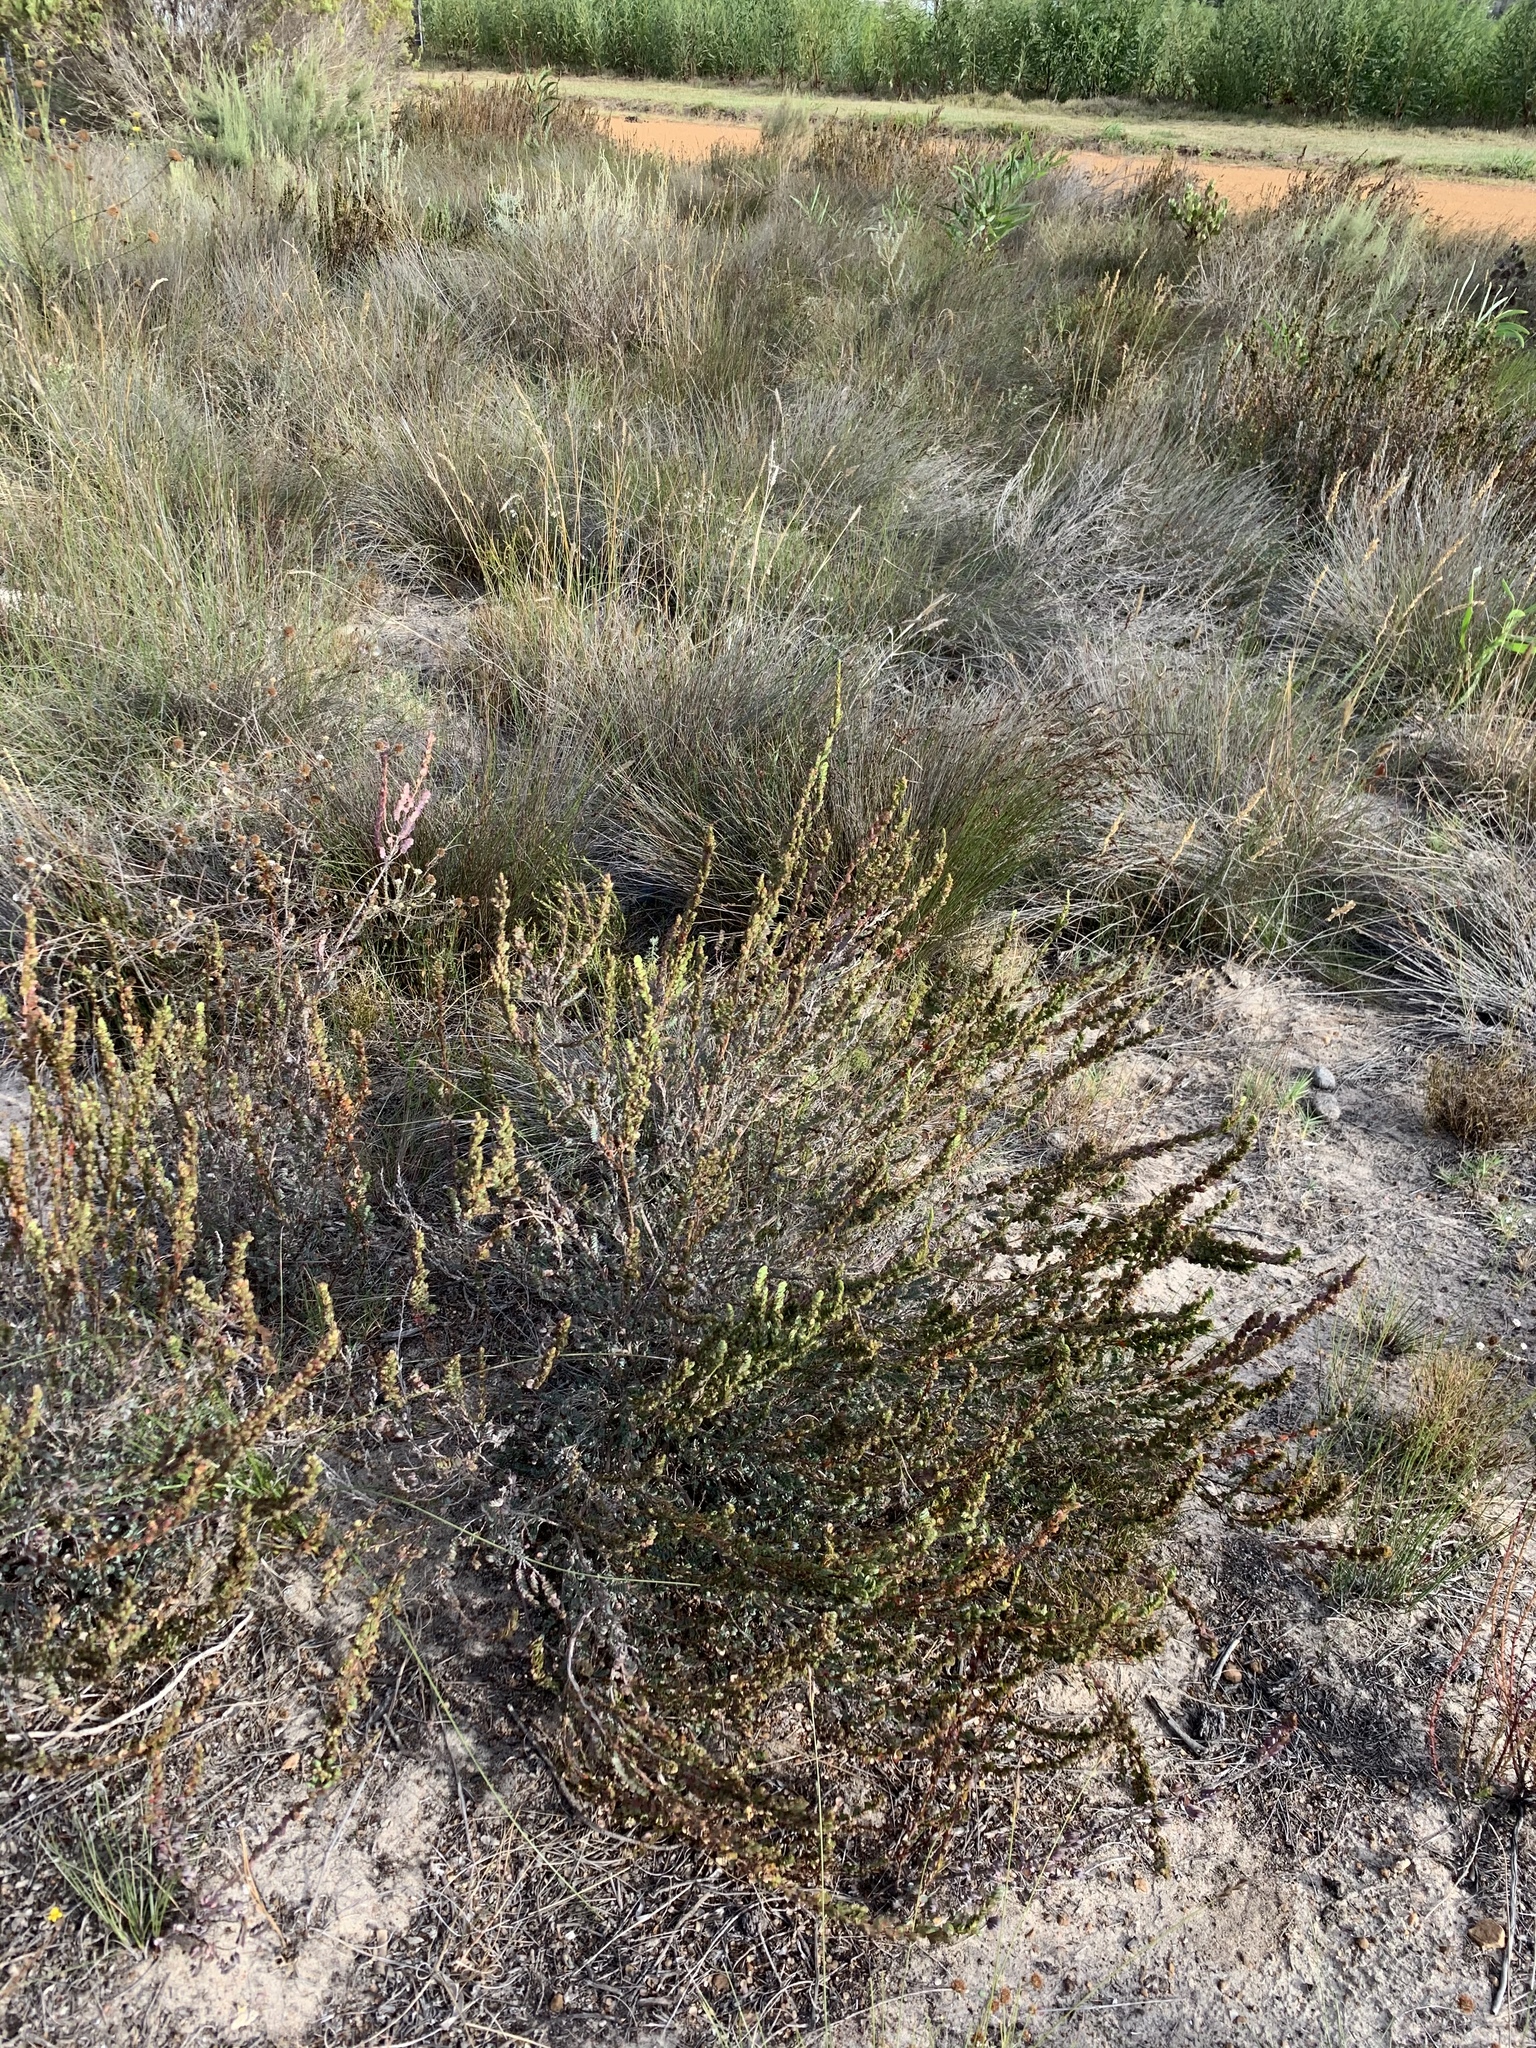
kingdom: Plantae
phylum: Tracheophyta
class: Magnoliopsida
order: Rosales
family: Rosaceae
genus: Cliffortia
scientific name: Cliffortia phyllanthoides
